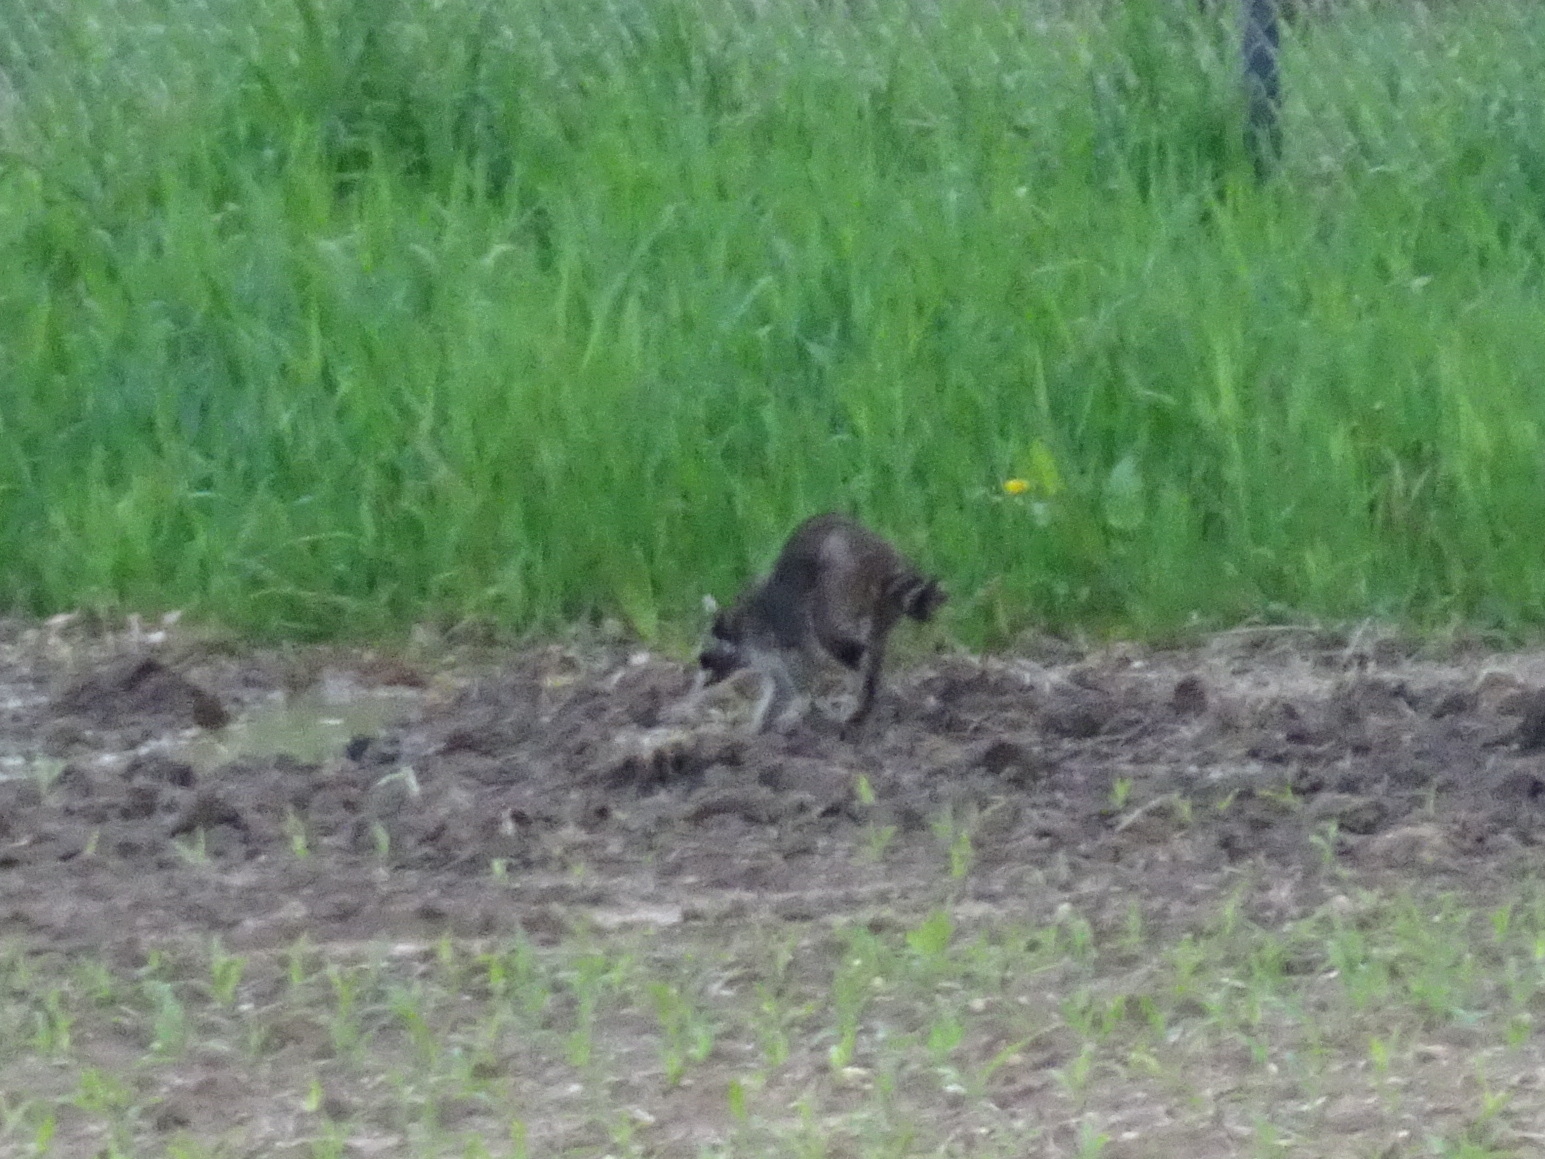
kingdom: Animalia
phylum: Chordata
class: Mammalia
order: Carnivora
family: Procyonidae
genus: Procyon
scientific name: Procyon lotor
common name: Raccoon
